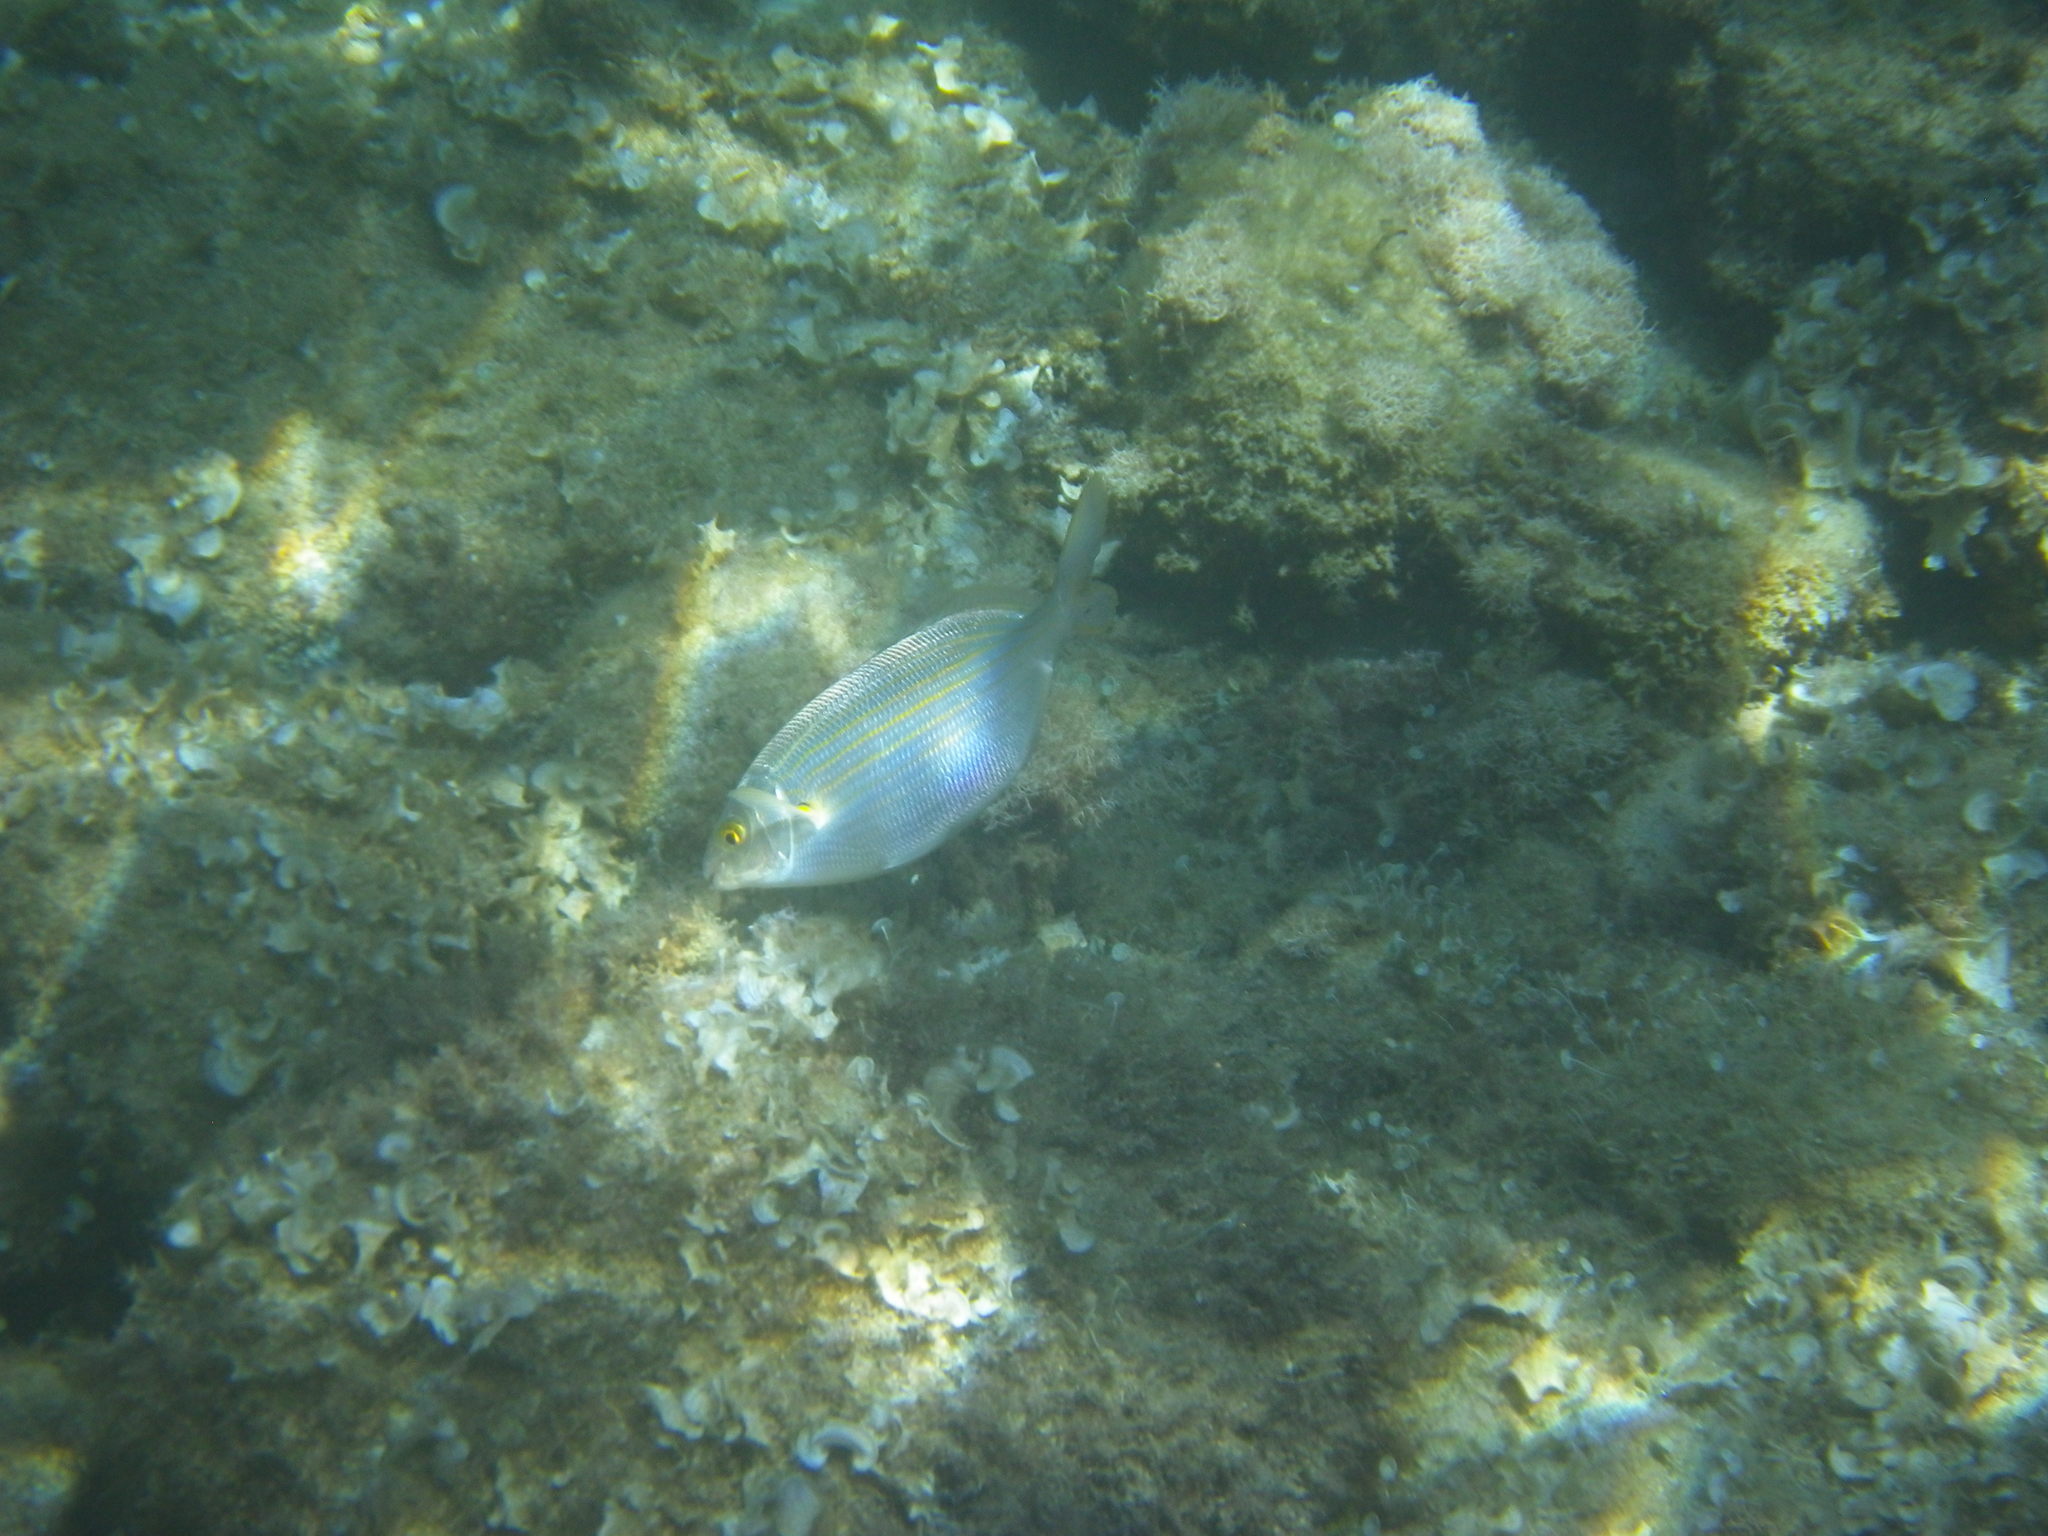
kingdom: Animalia
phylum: Chordata
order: Perciformes
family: Sparidae
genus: Sarpa
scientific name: Sarpa salpa
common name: Salema
